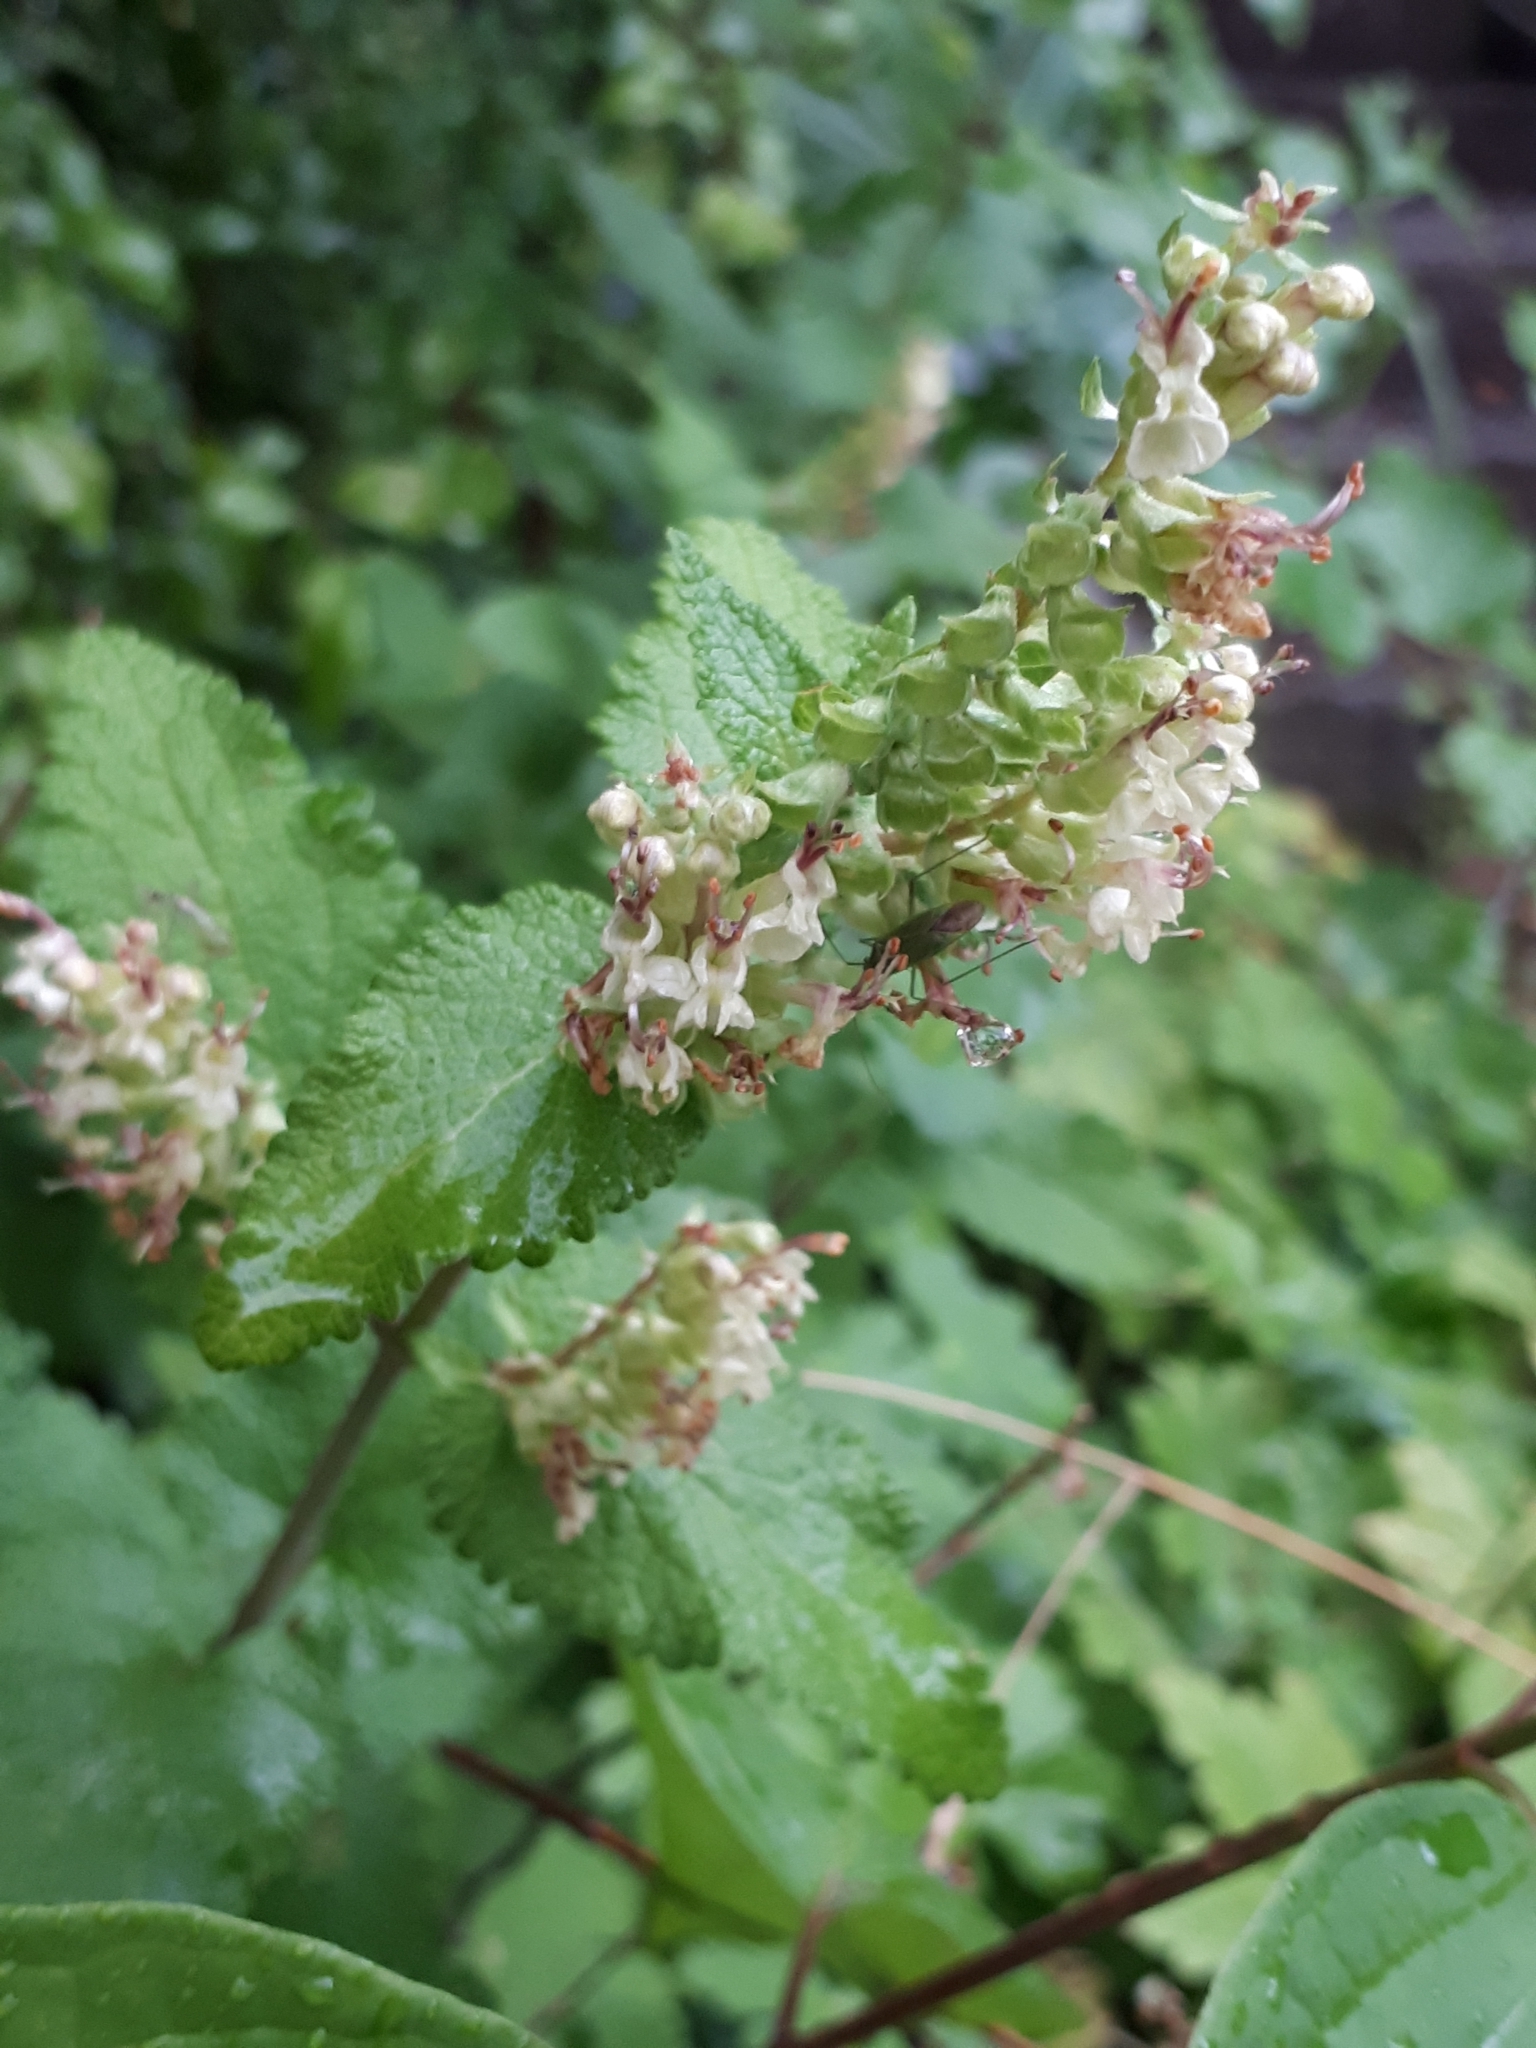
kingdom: Plantae
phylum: Tracheophyta
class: Magnoliopsida
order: Lamiales
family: Lamiaceae
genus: Teucrium
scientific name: Teucrium scorodonia
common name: Woodland germander
